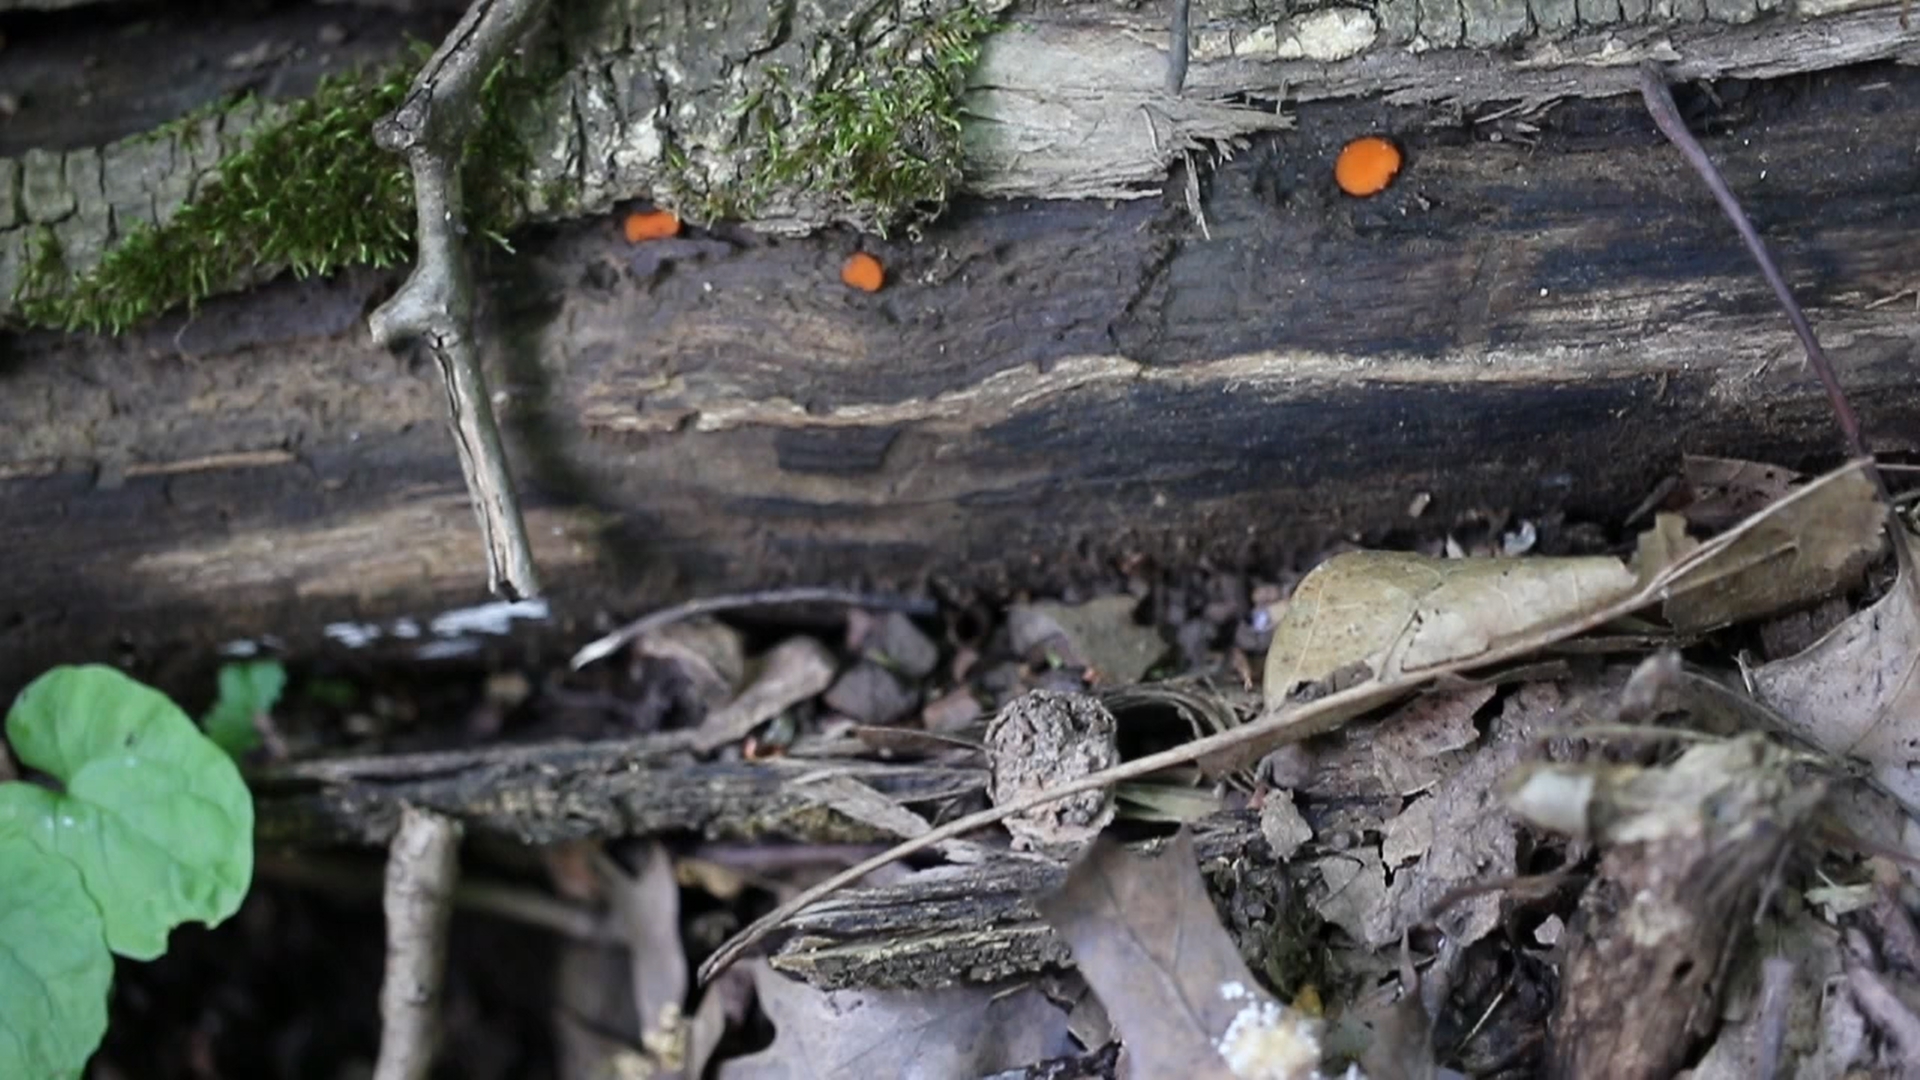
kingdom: Fungi
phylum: Ascomycota
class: Pezizomycetes
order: Pezizales
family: Pyronemataceae
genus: Scutellinia
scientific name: Scutellinia olivascens
